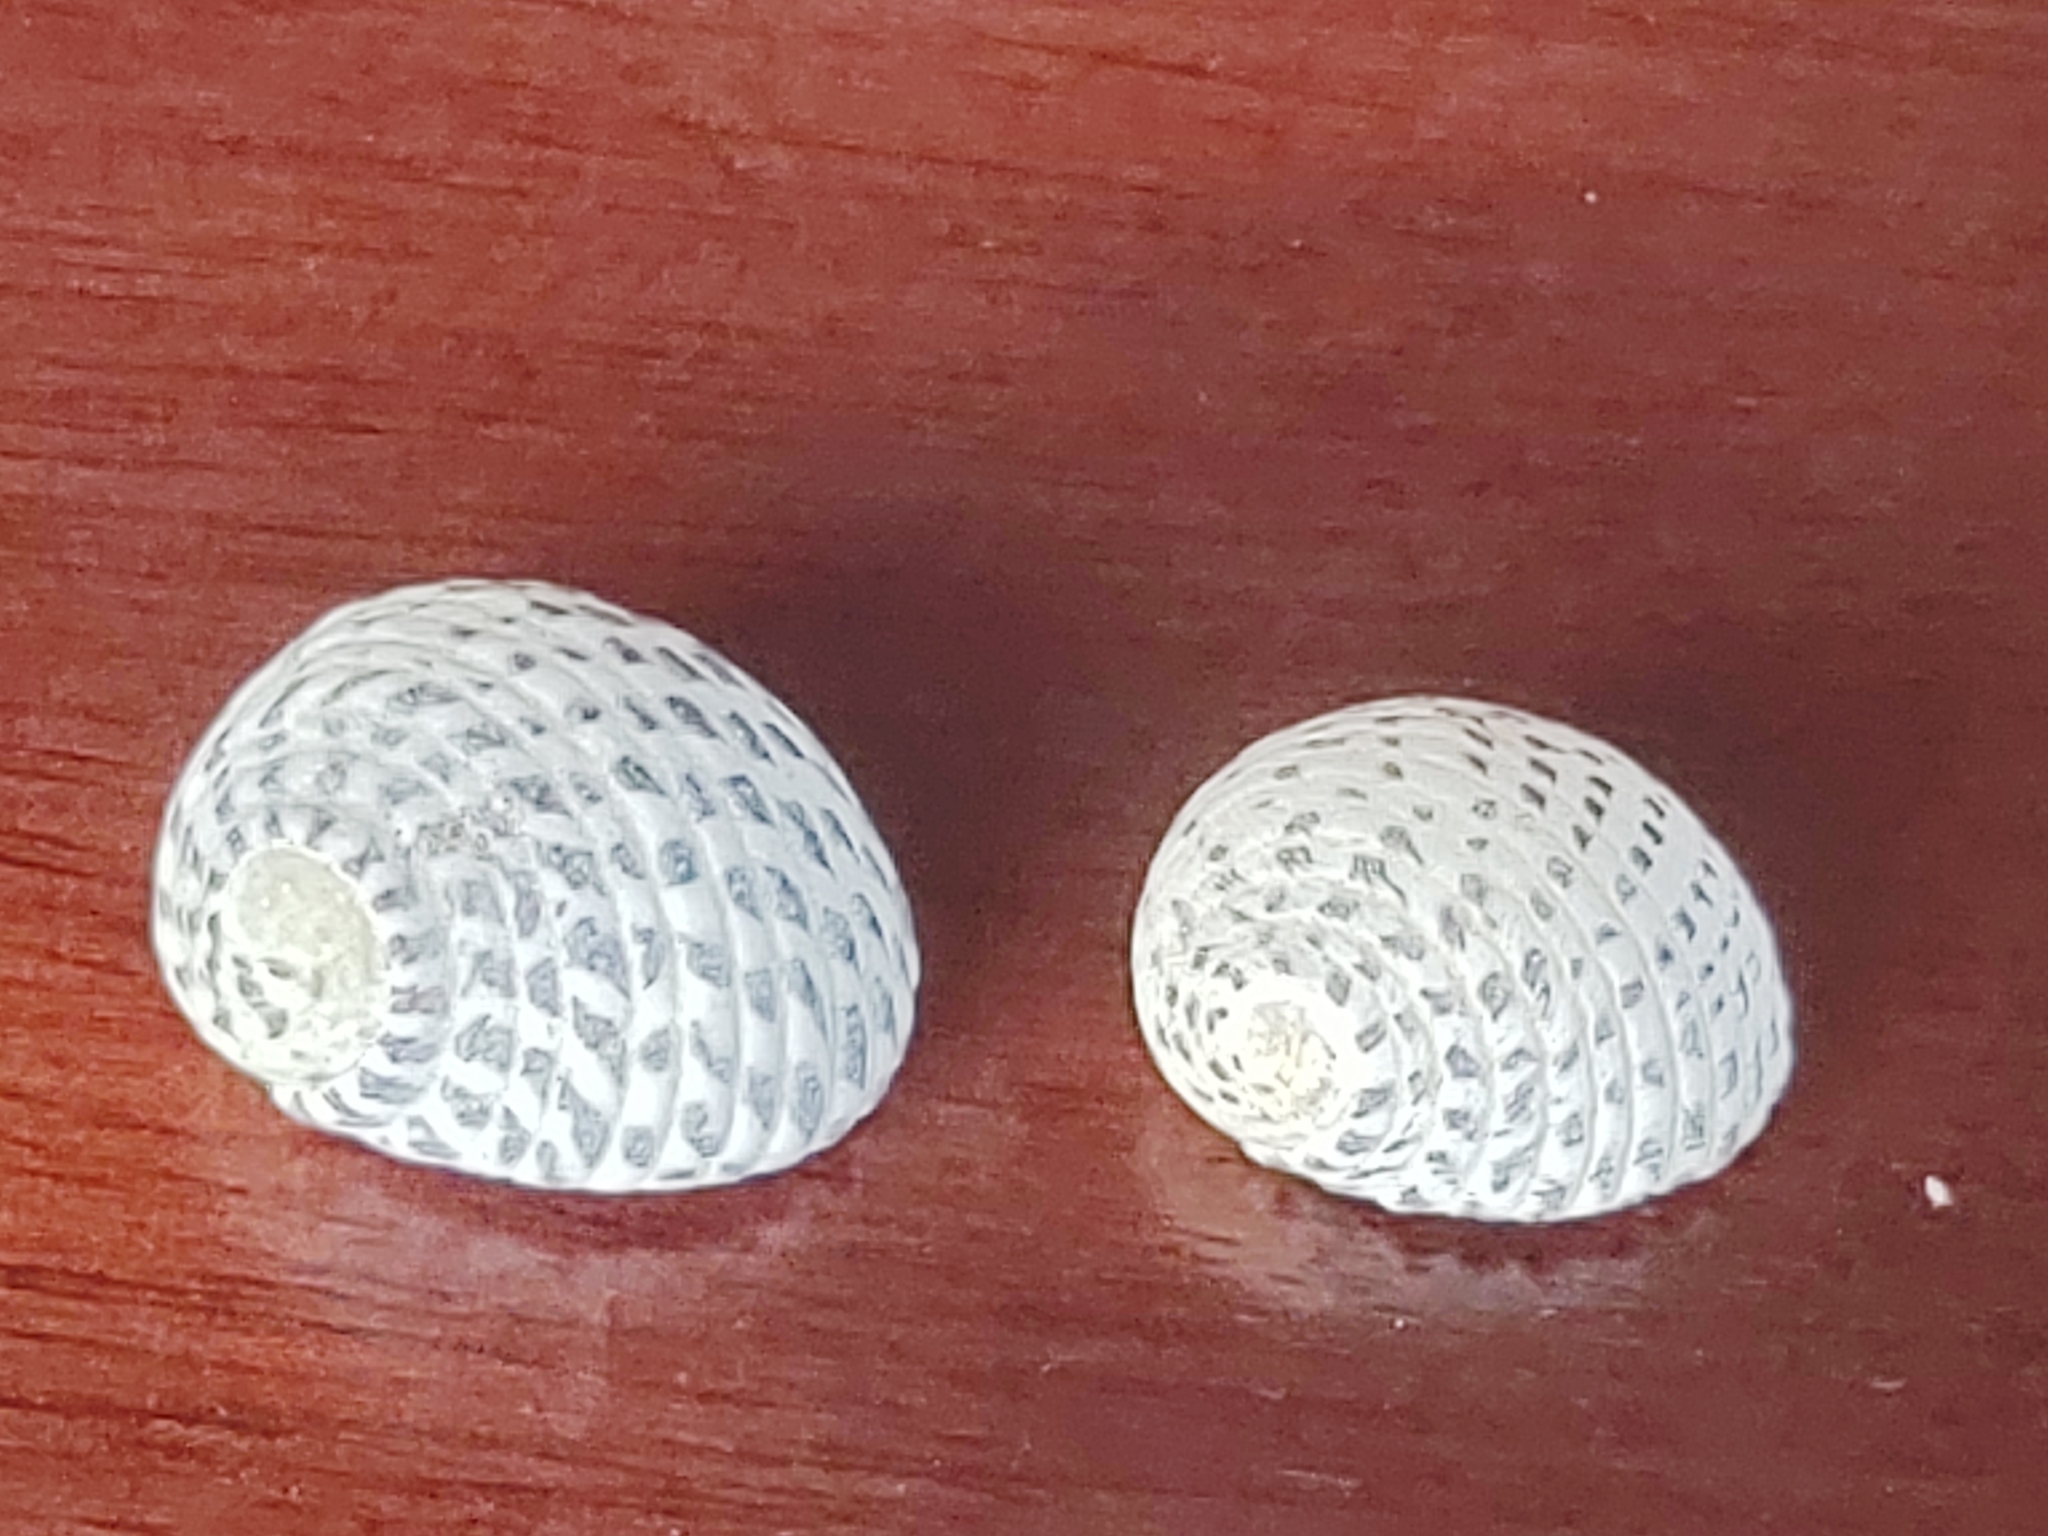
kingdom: Animalia
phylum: Mollusca
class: Gastropoda
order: Cycloneritida
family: Neritidae
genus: Nerita
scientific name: Nerita tessellata
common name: Checkered nerite
